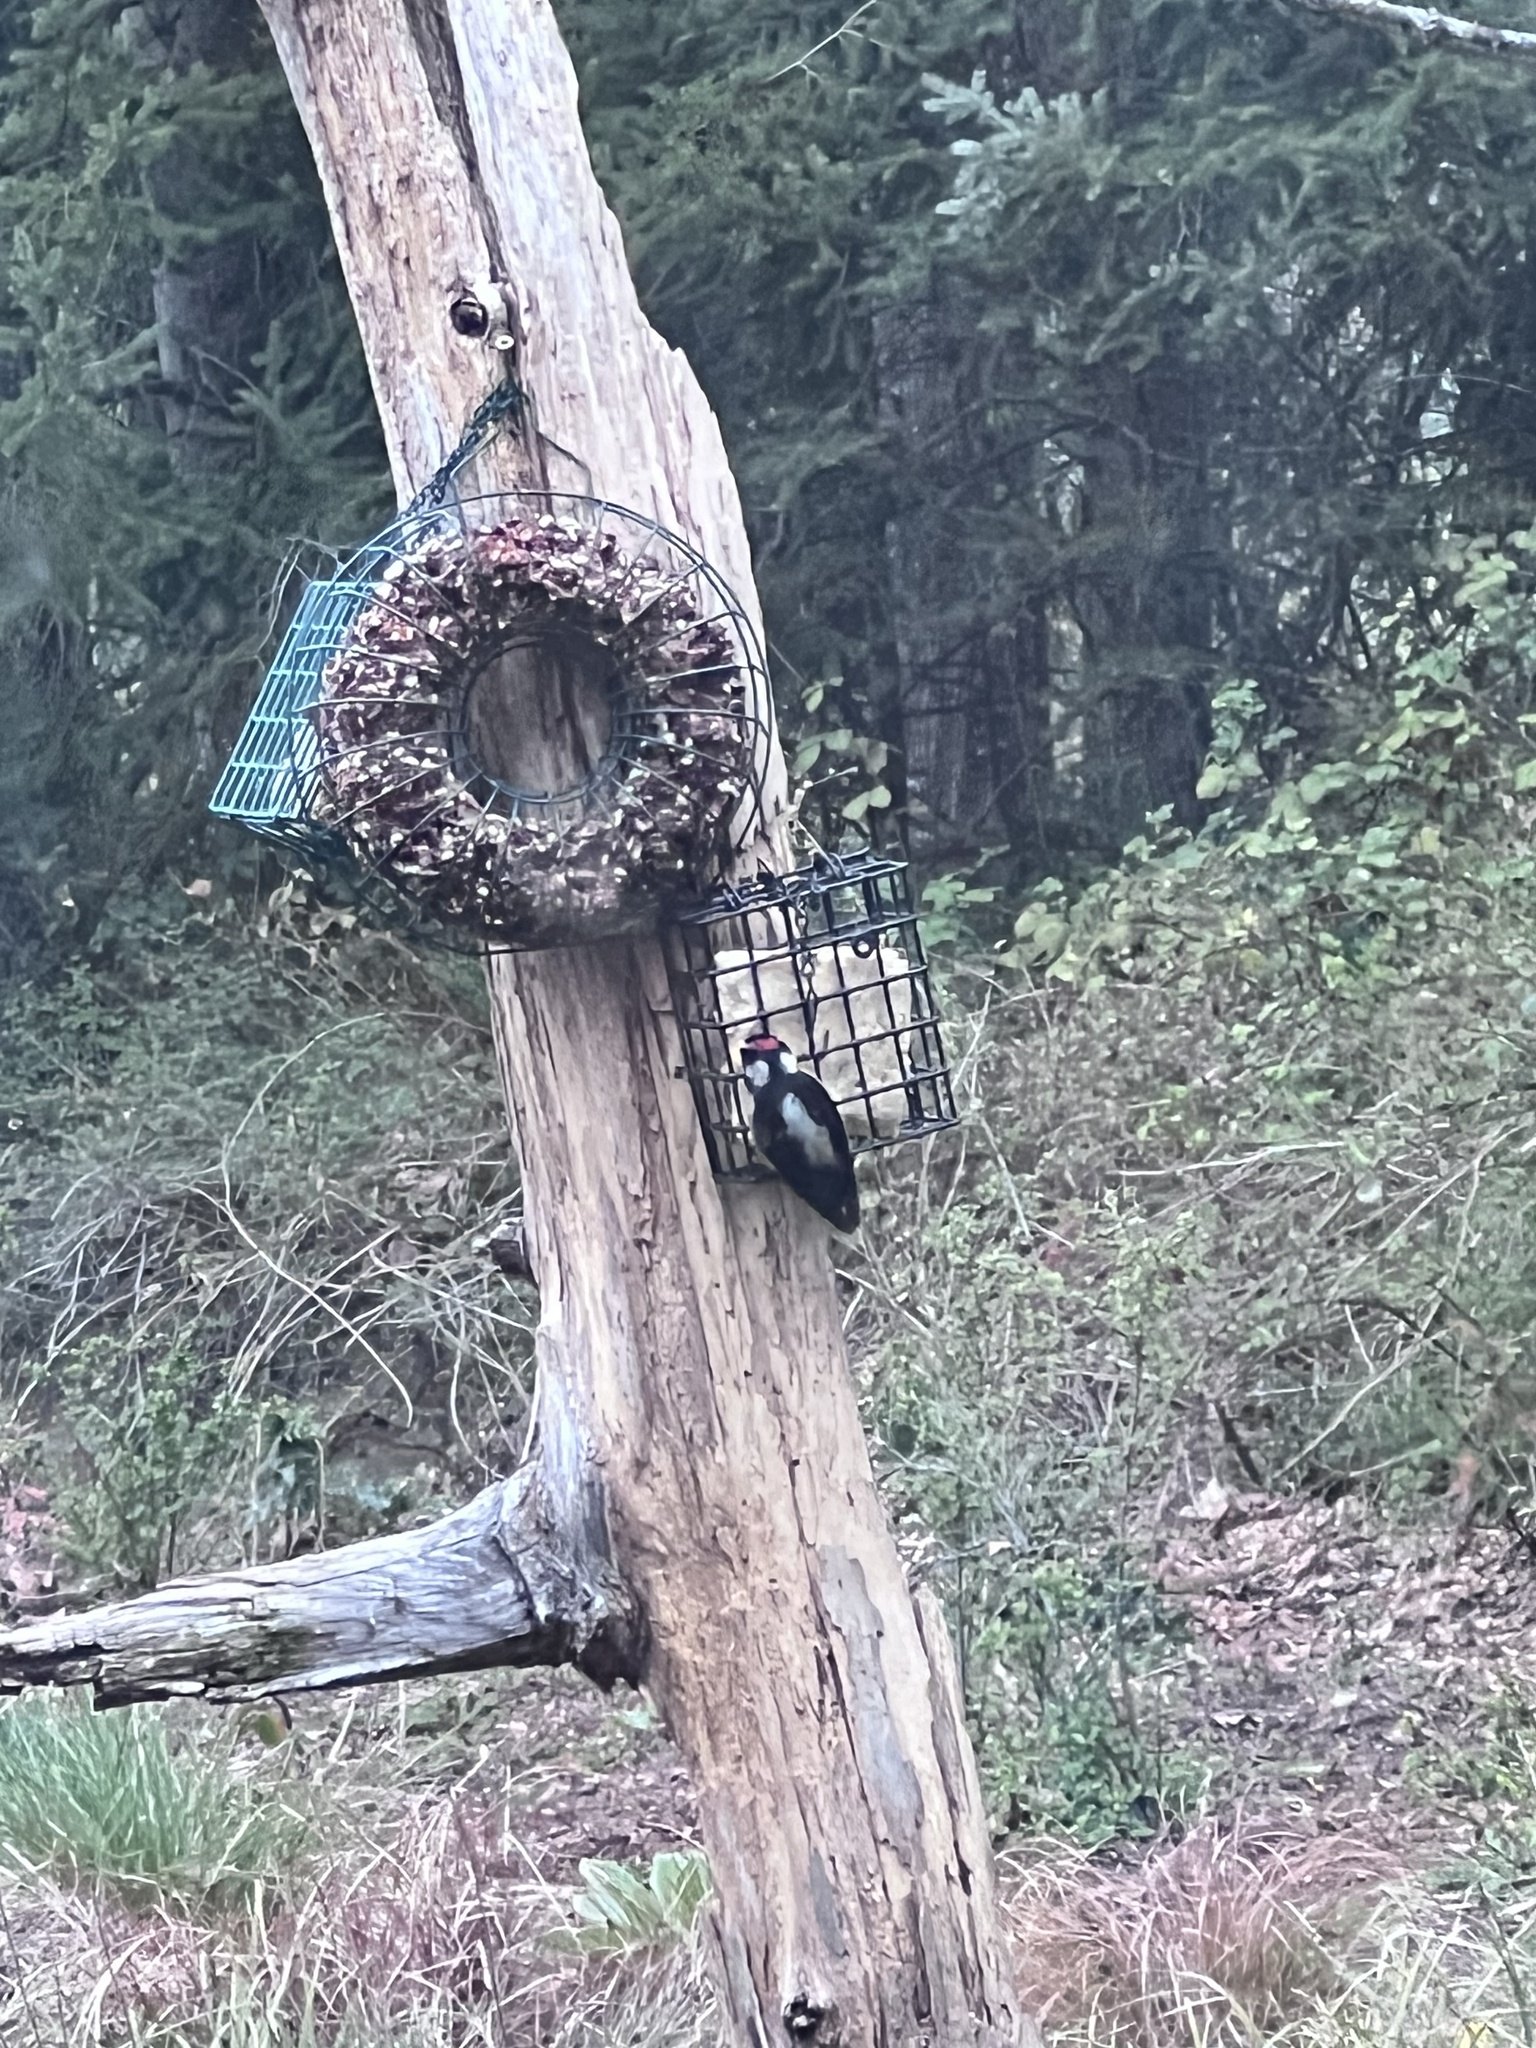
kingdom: Animalia
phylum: Chordata
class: Aves
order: Piciformes
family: Picidae
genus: Dryobates
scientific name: Dryobates pubescens
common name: Downy woodpecker
